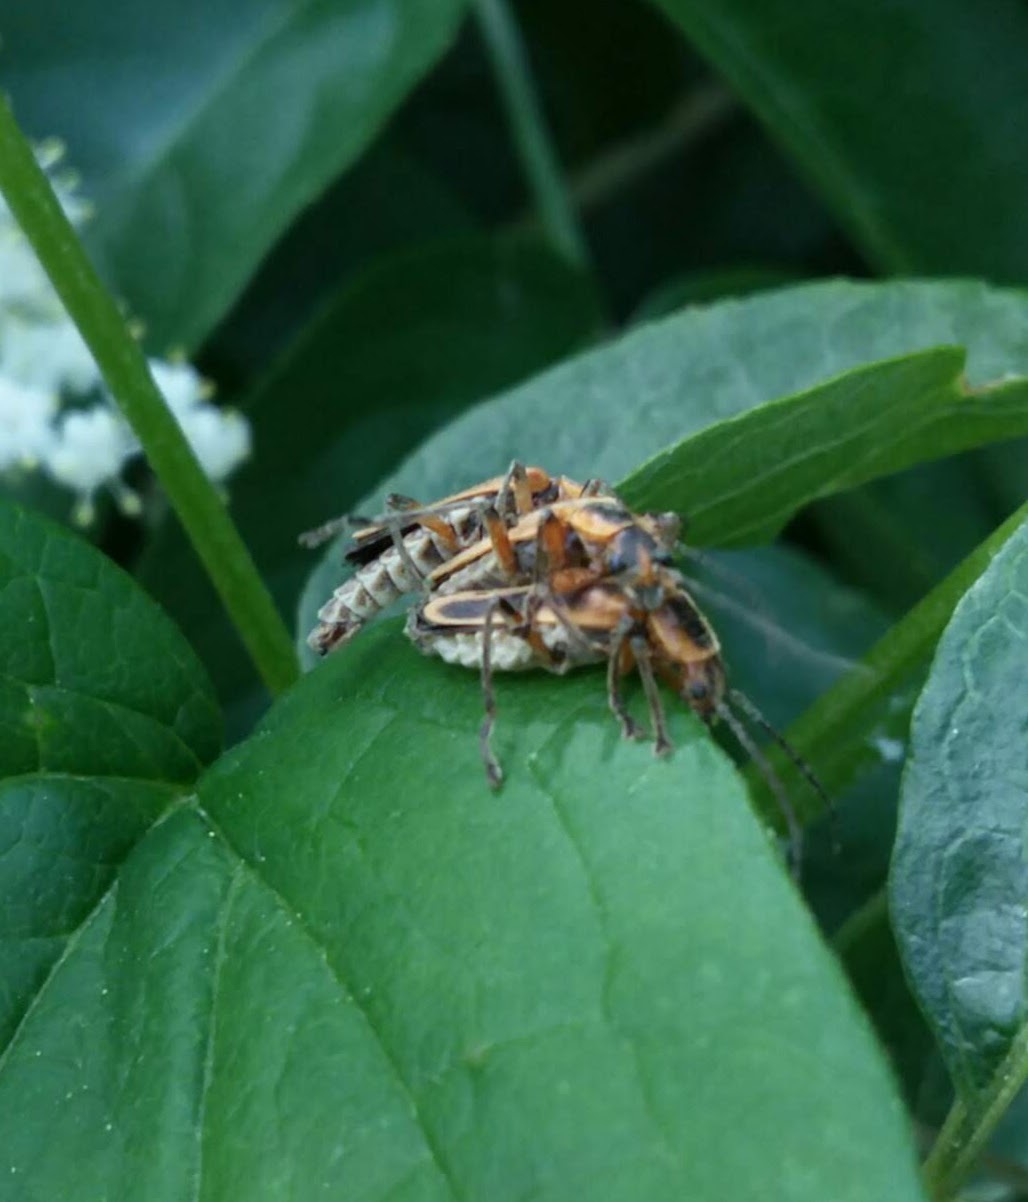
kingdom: Animalia
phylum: Arthropoda
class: Insecta
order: Coleoptera
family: Cantharidae
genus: Chauliognathus
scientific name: Chauliognathus marginatus
